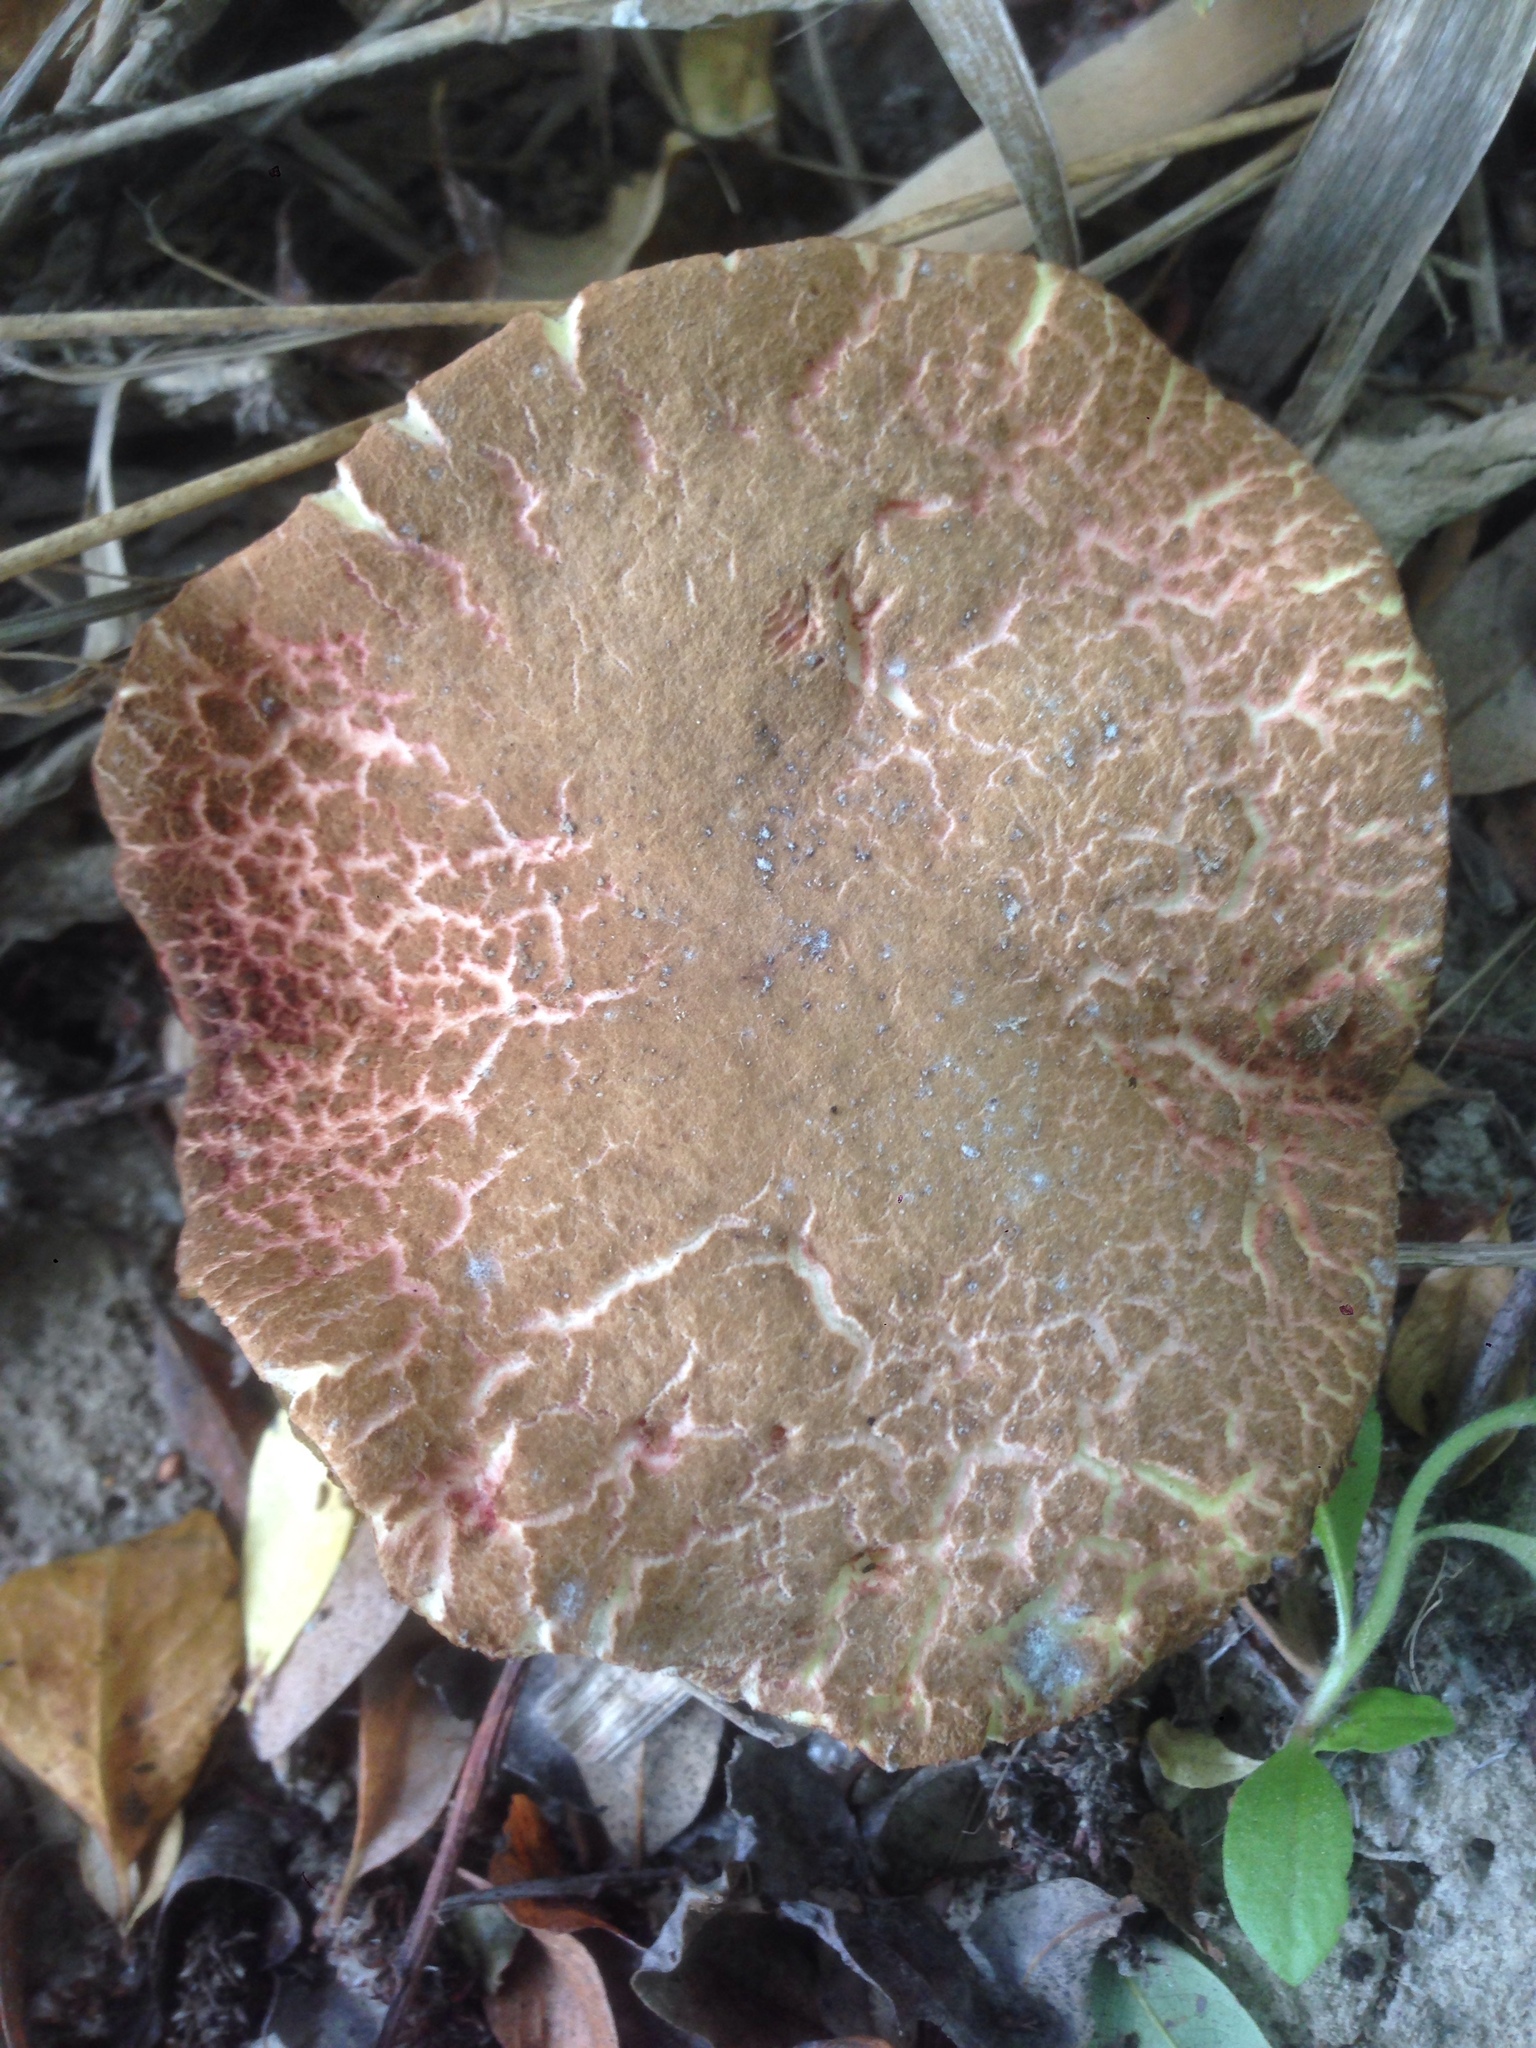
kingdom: Fungi
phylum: Basidiomycota
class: Agaricomycetes
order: Boletales
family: Boletaceae
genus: Xerocomellus
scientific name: Xerocomellus salicicola
